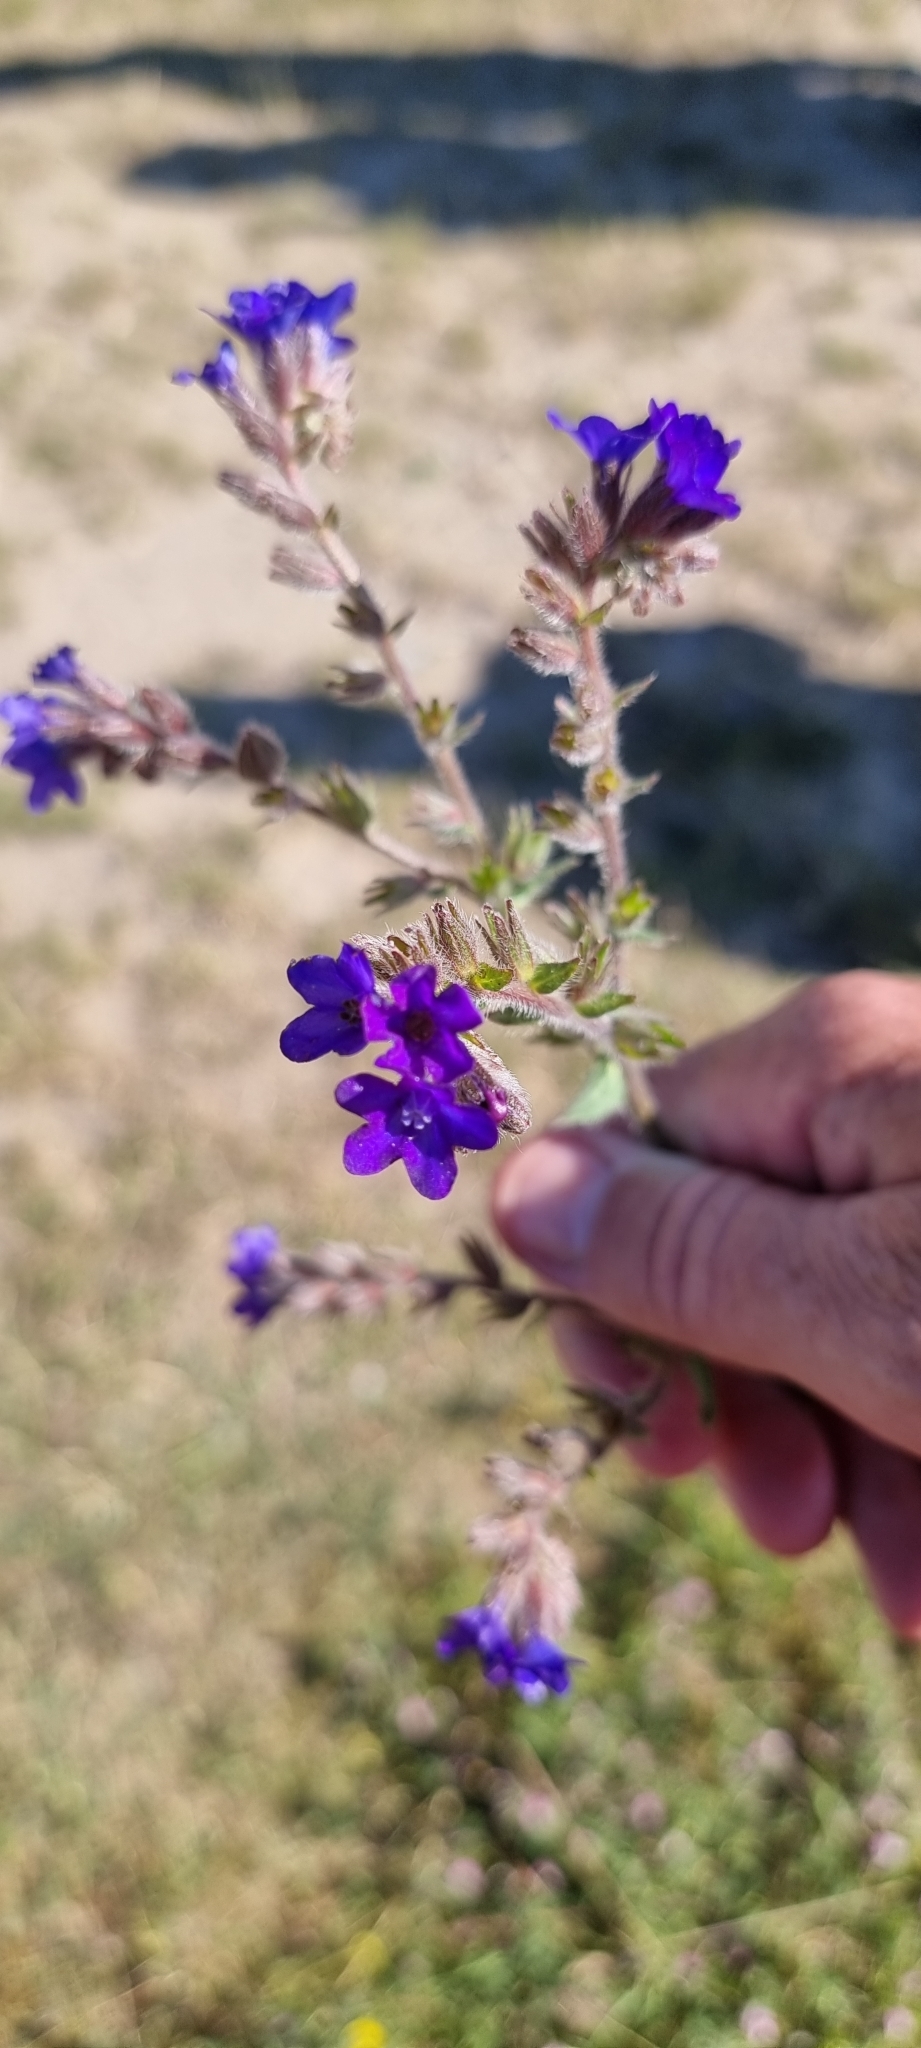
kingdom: Plantae
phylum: Tracheophyta
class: Magnoliopsida
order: Boraginales
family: Boraginaceae
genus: Anchusa
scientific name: Anchusa officinalis
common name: Alkanet
